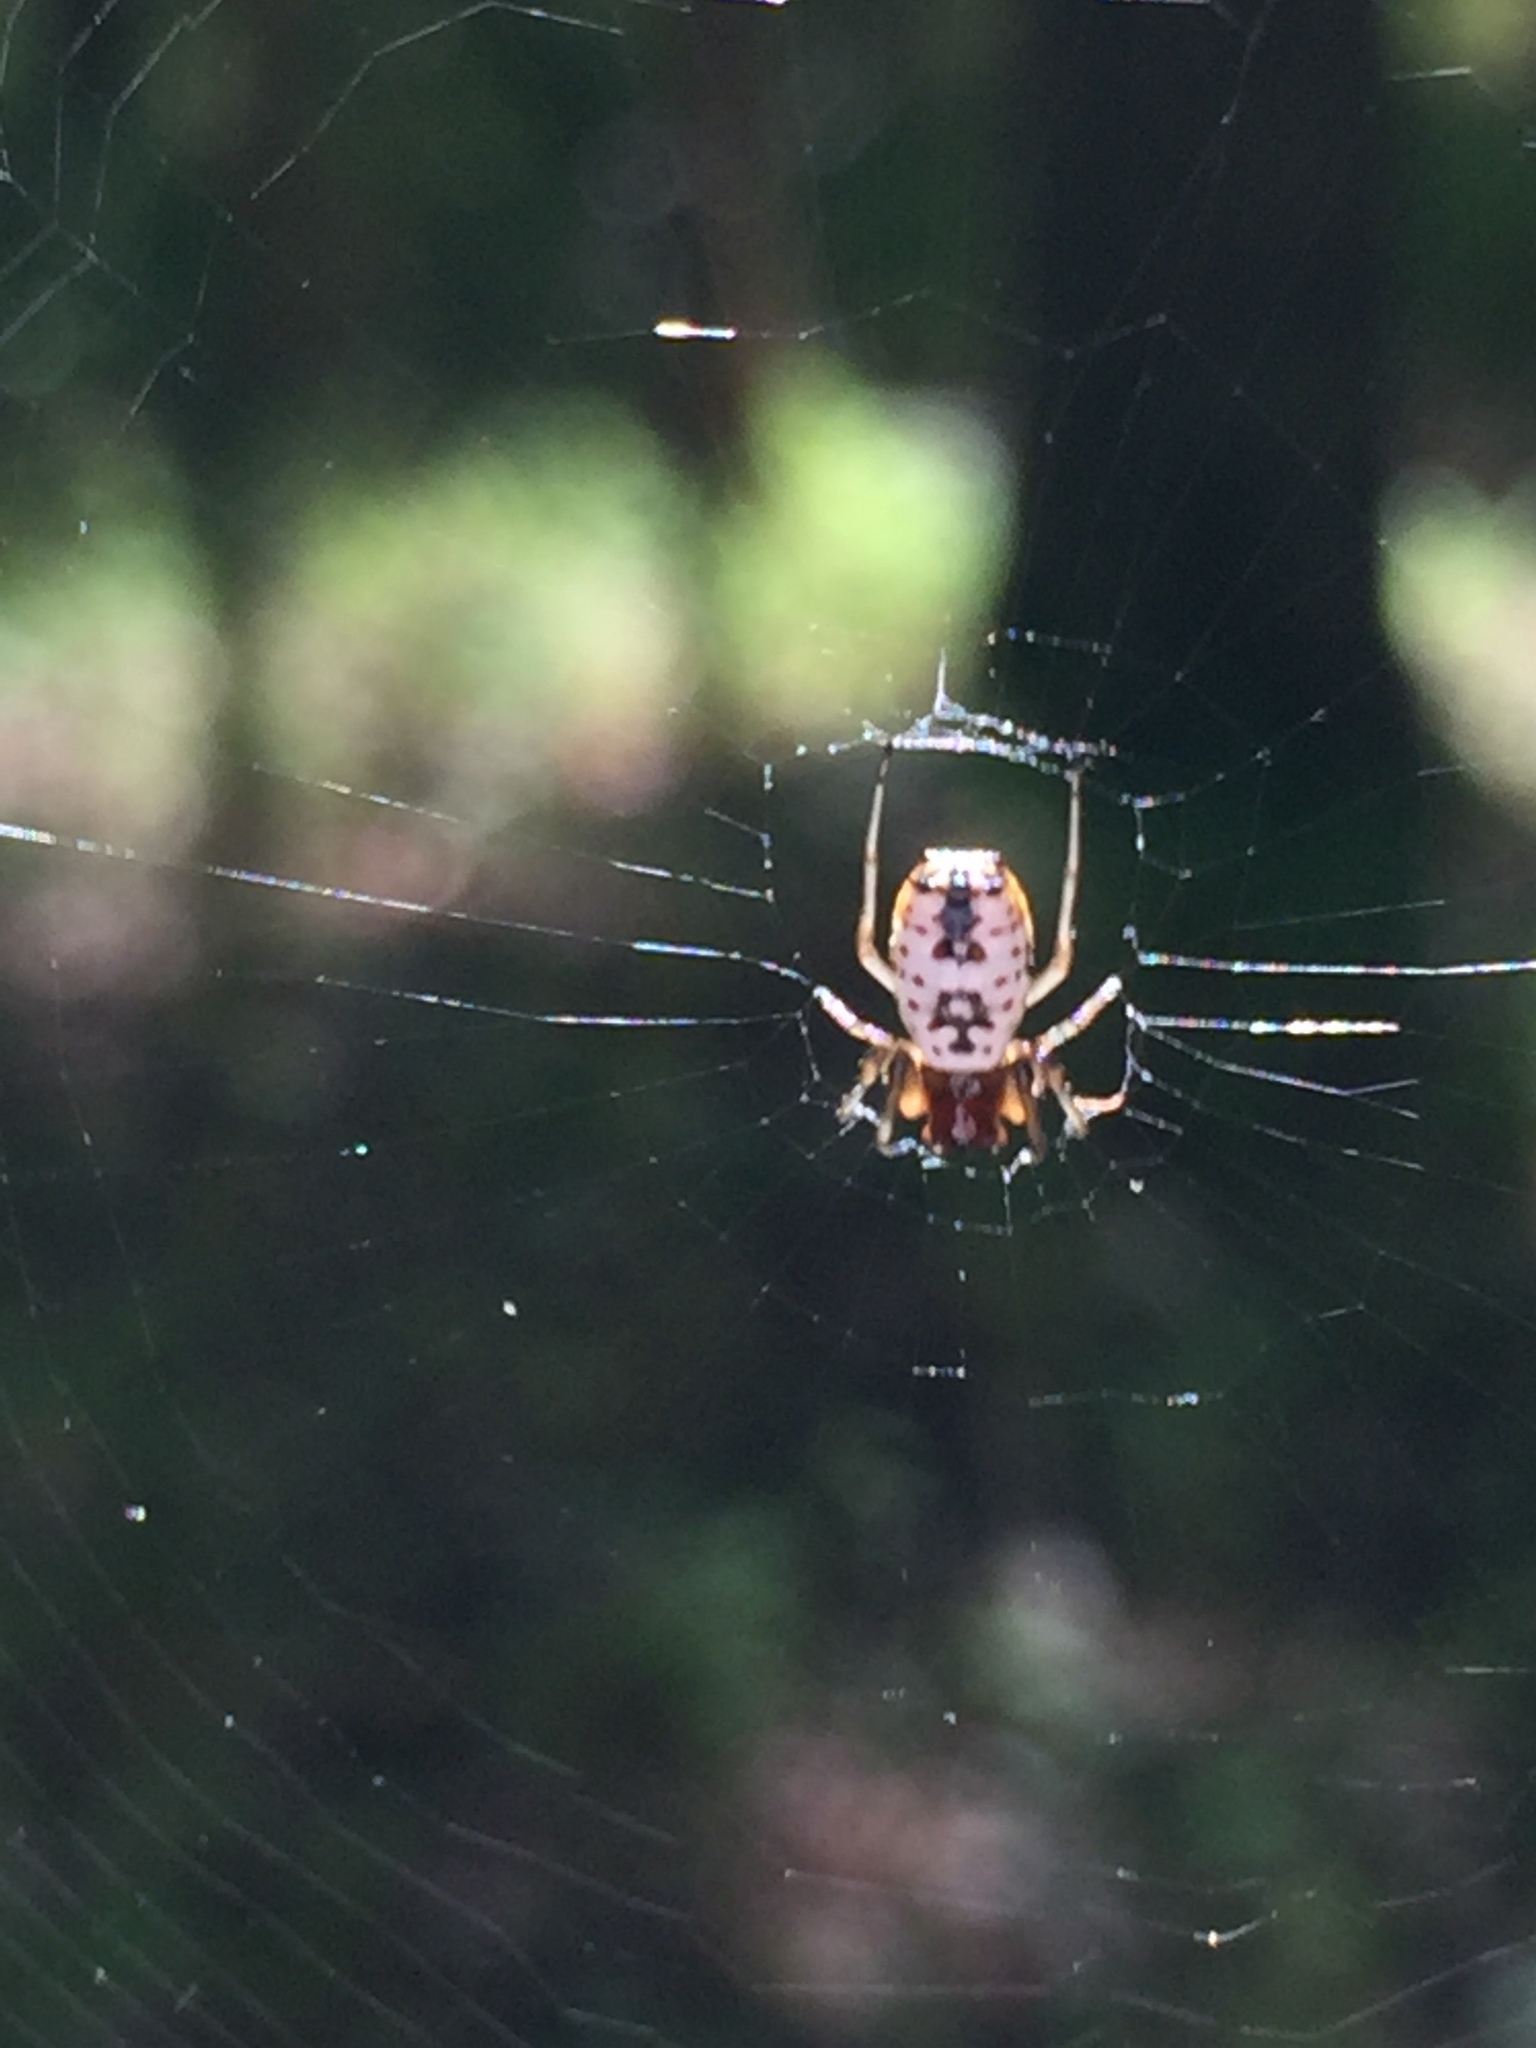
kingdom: Animalia
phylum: Arthropoda
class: Arachnida
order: Araneae
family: Araneidae
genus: Micrathena
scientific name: Micrathena mitrata
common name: Orb weavers
